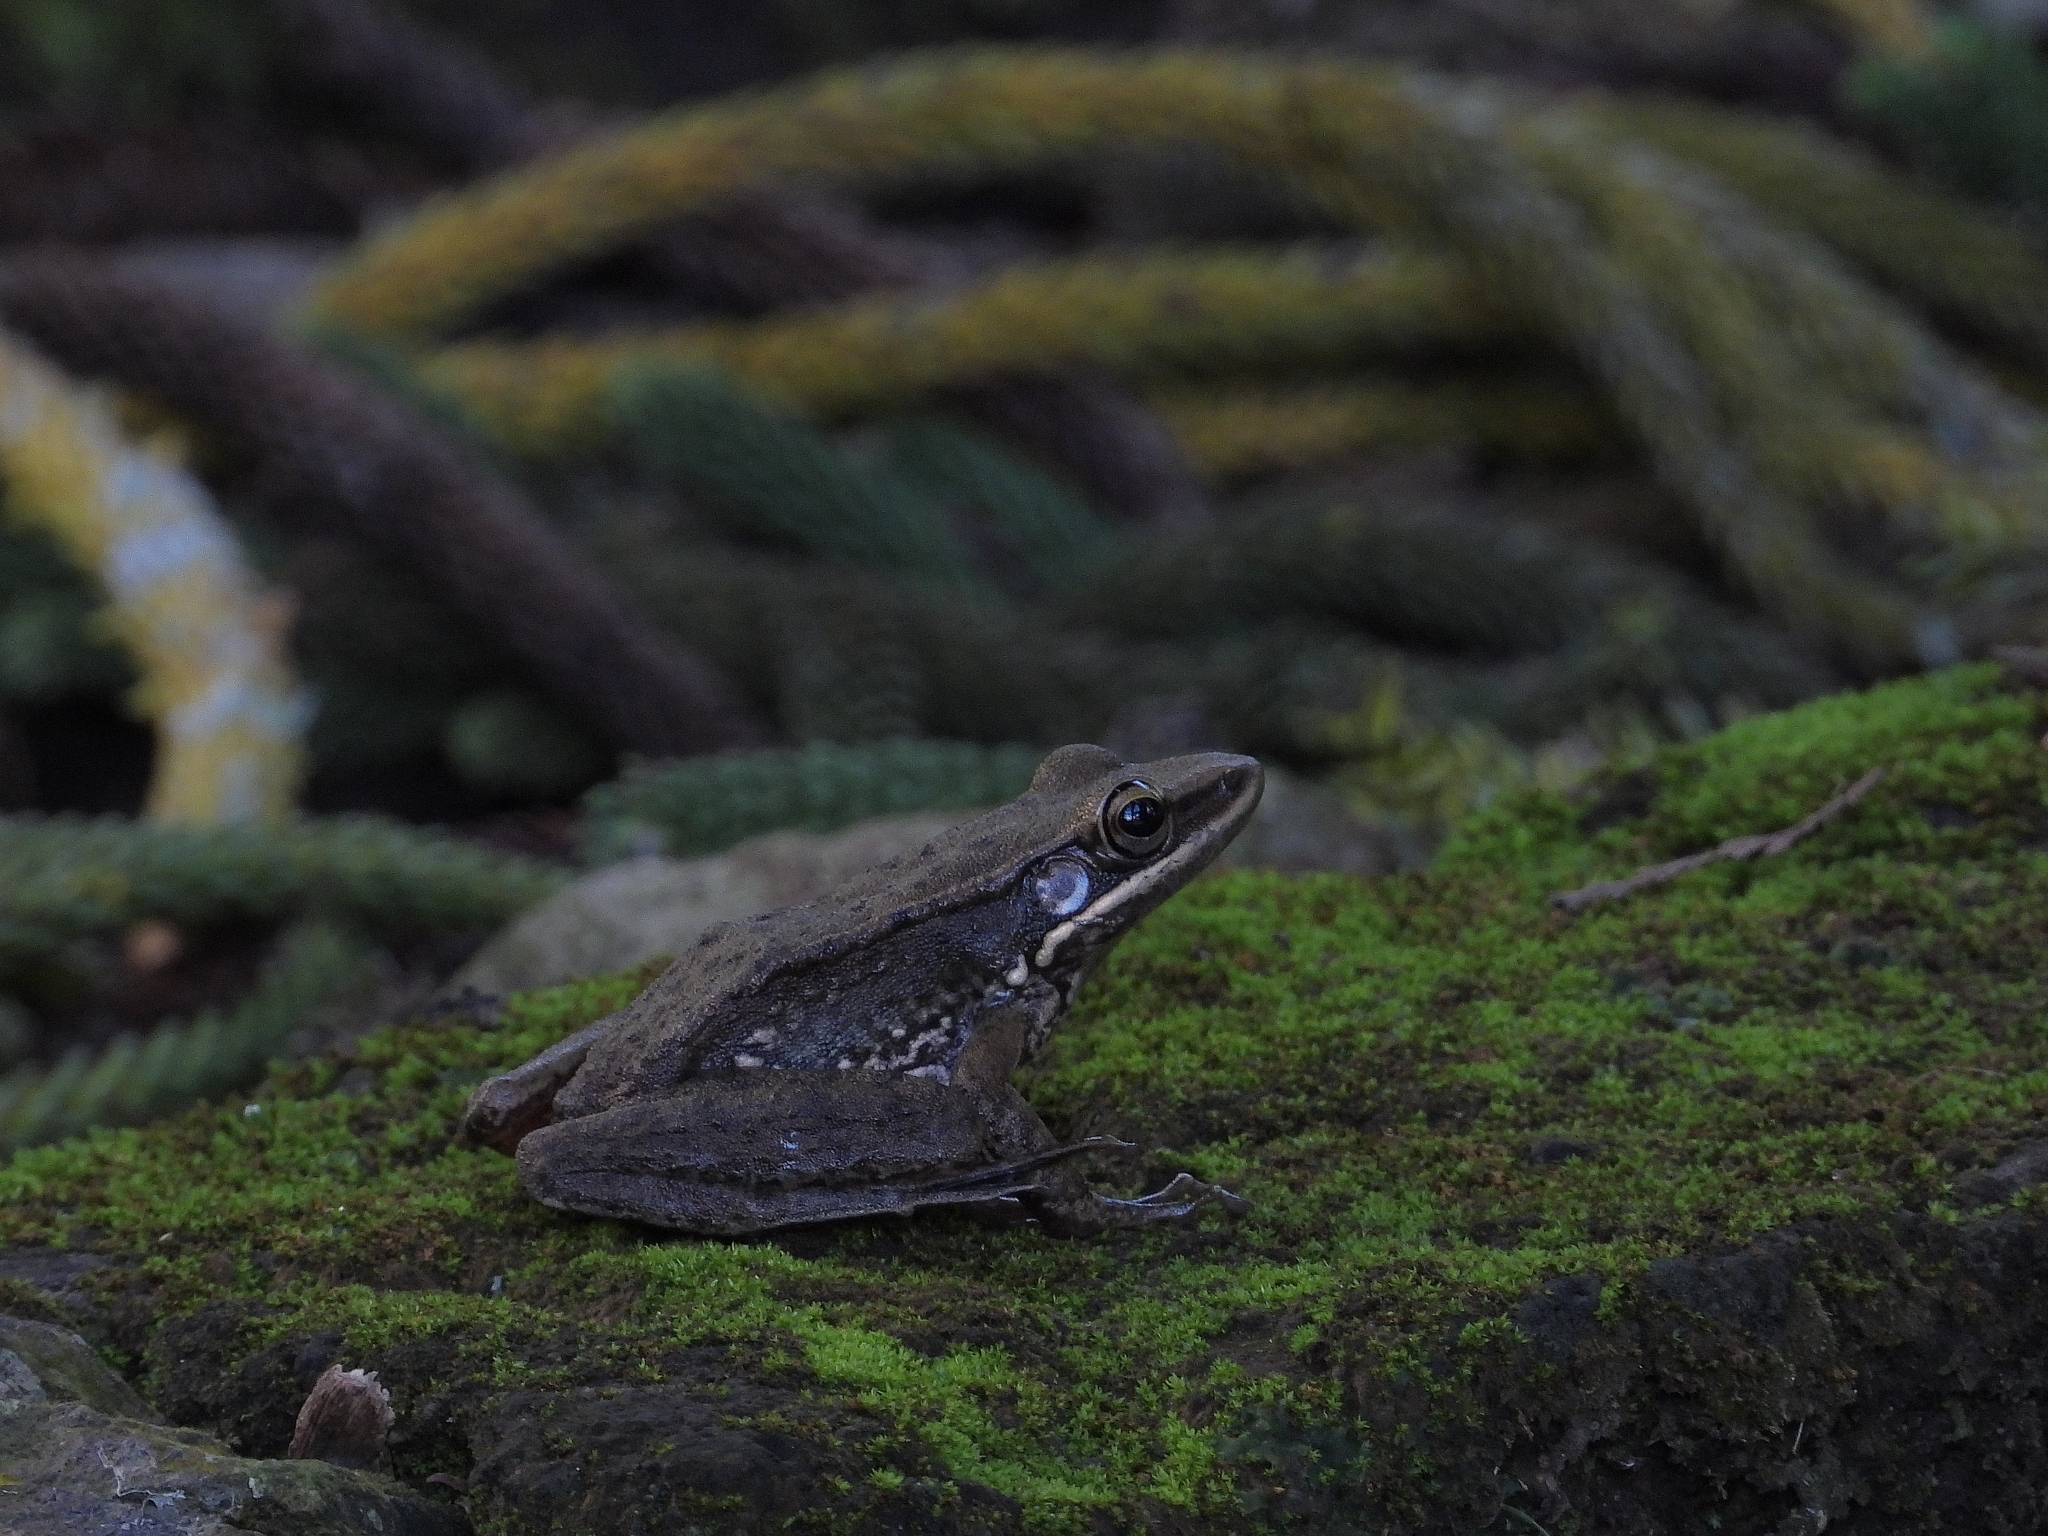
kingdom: Animalia
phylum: Chordata
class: Amphibia
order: Anura
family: Ranidae
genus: Chalcorana
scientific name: Chalcorana chalconota
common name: Schlegel's frog
